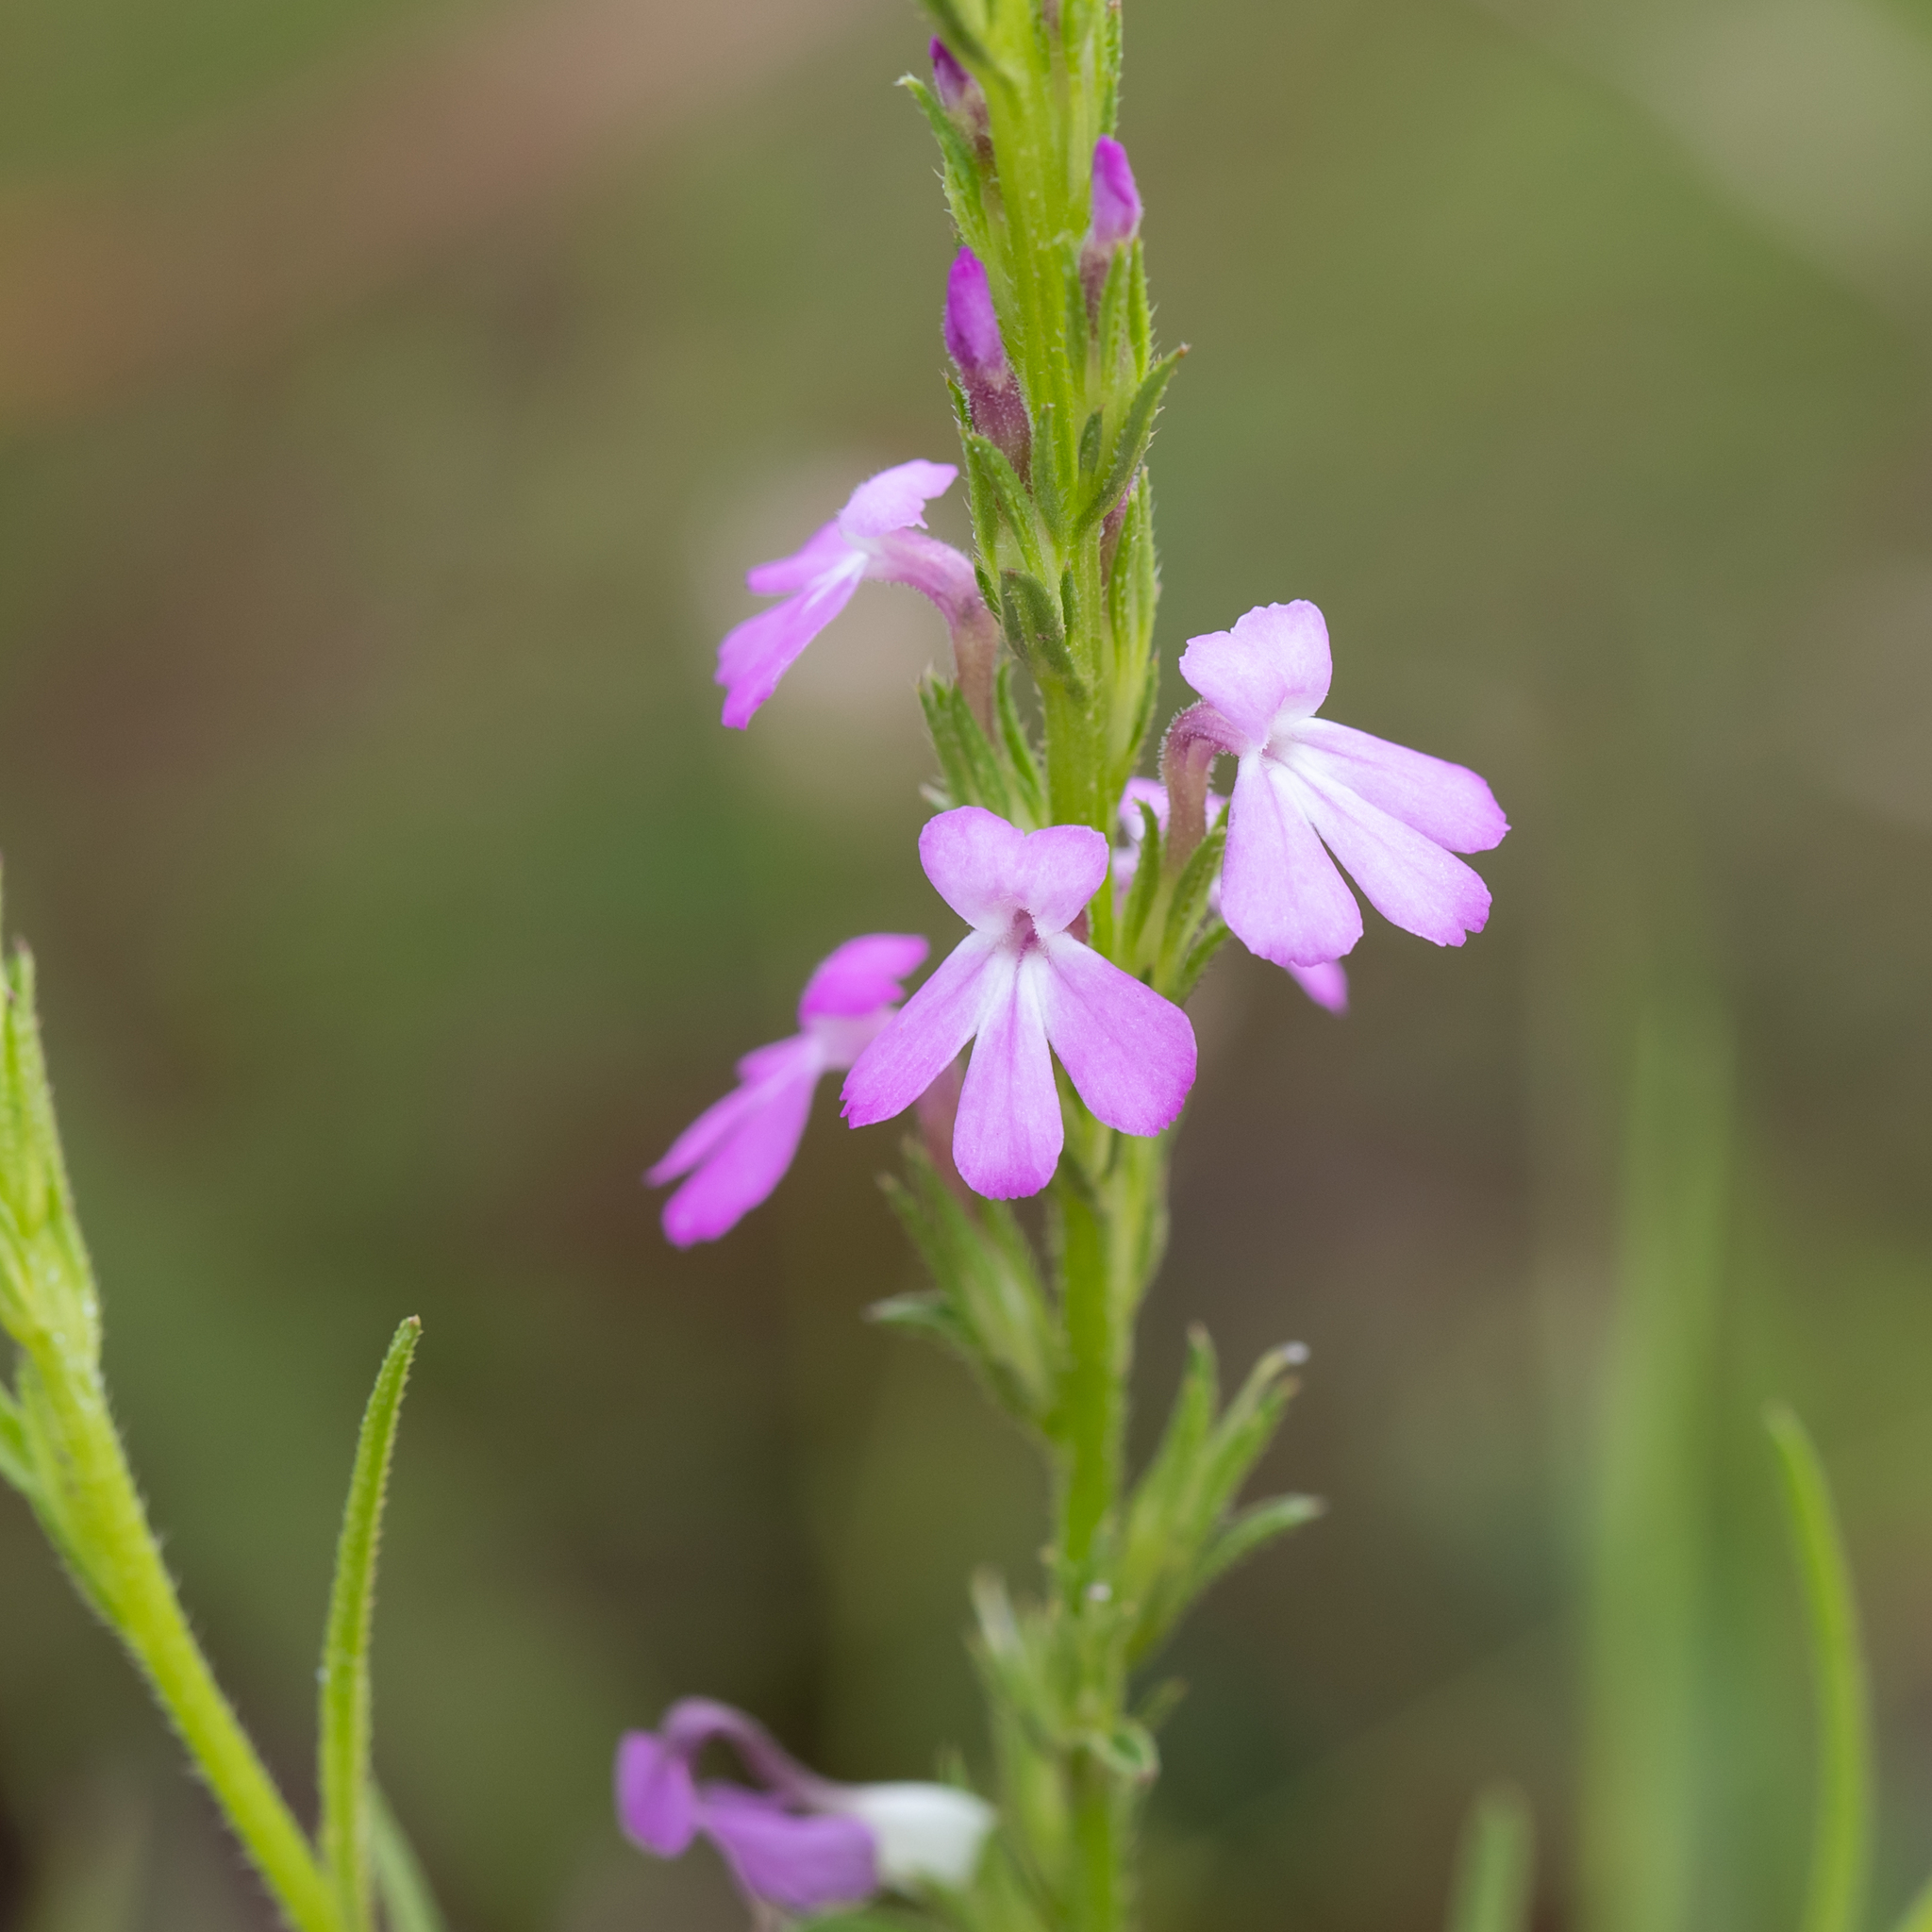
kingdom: Plantae
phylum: Tracheophyta
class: Magnoliopsida
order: Lamiales
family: Orobanchaceae
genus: Striga
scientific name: Striga curviflora
